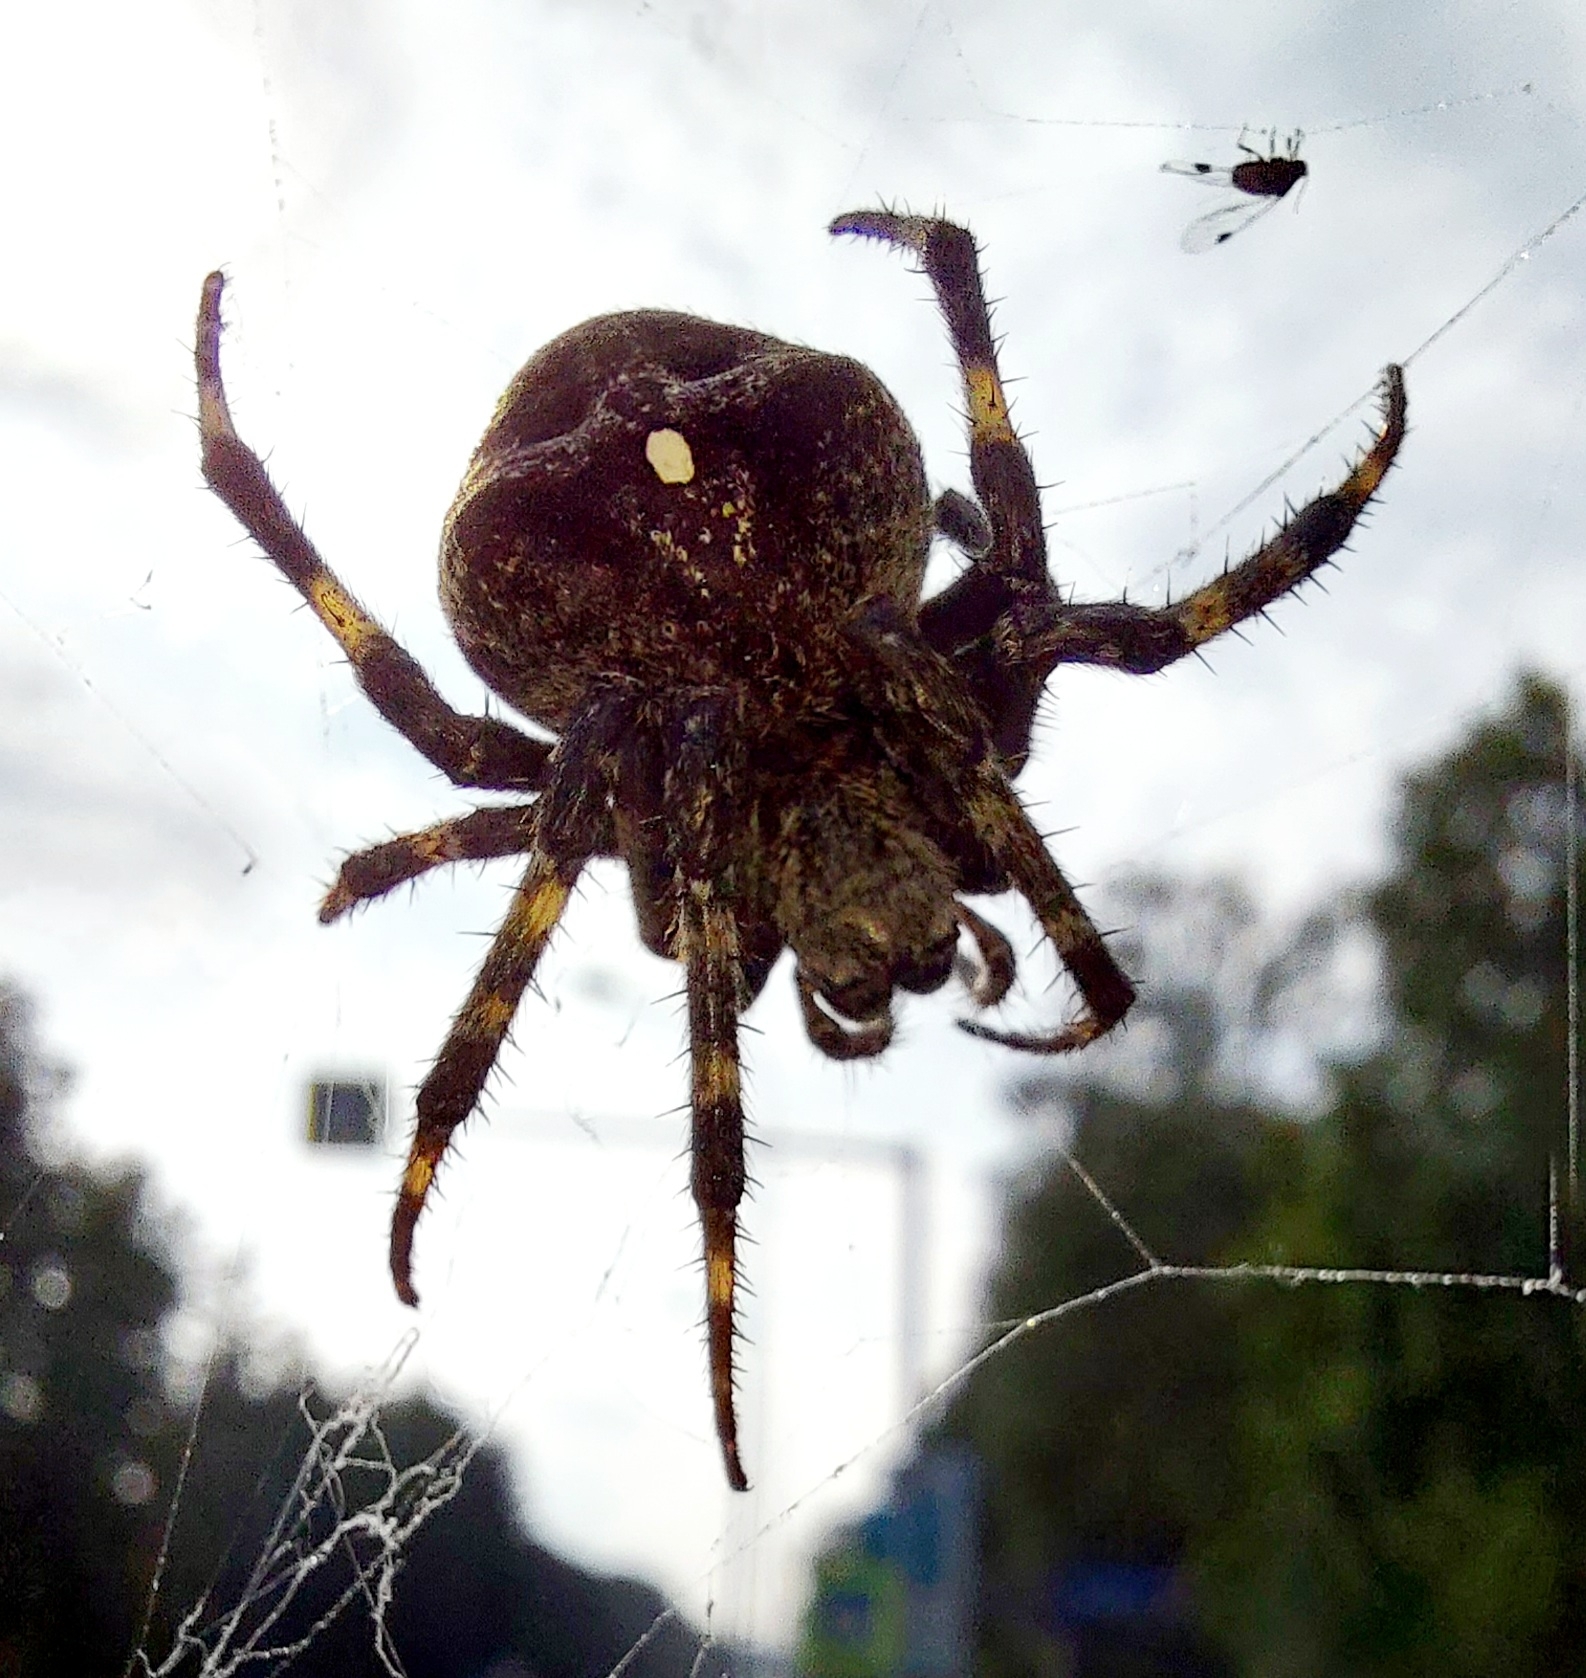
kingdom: Animalia
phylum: Arthropoda
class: Arachnida
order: Araneae
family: Araneidae
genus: Araneus
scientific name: Araneus angulatus
